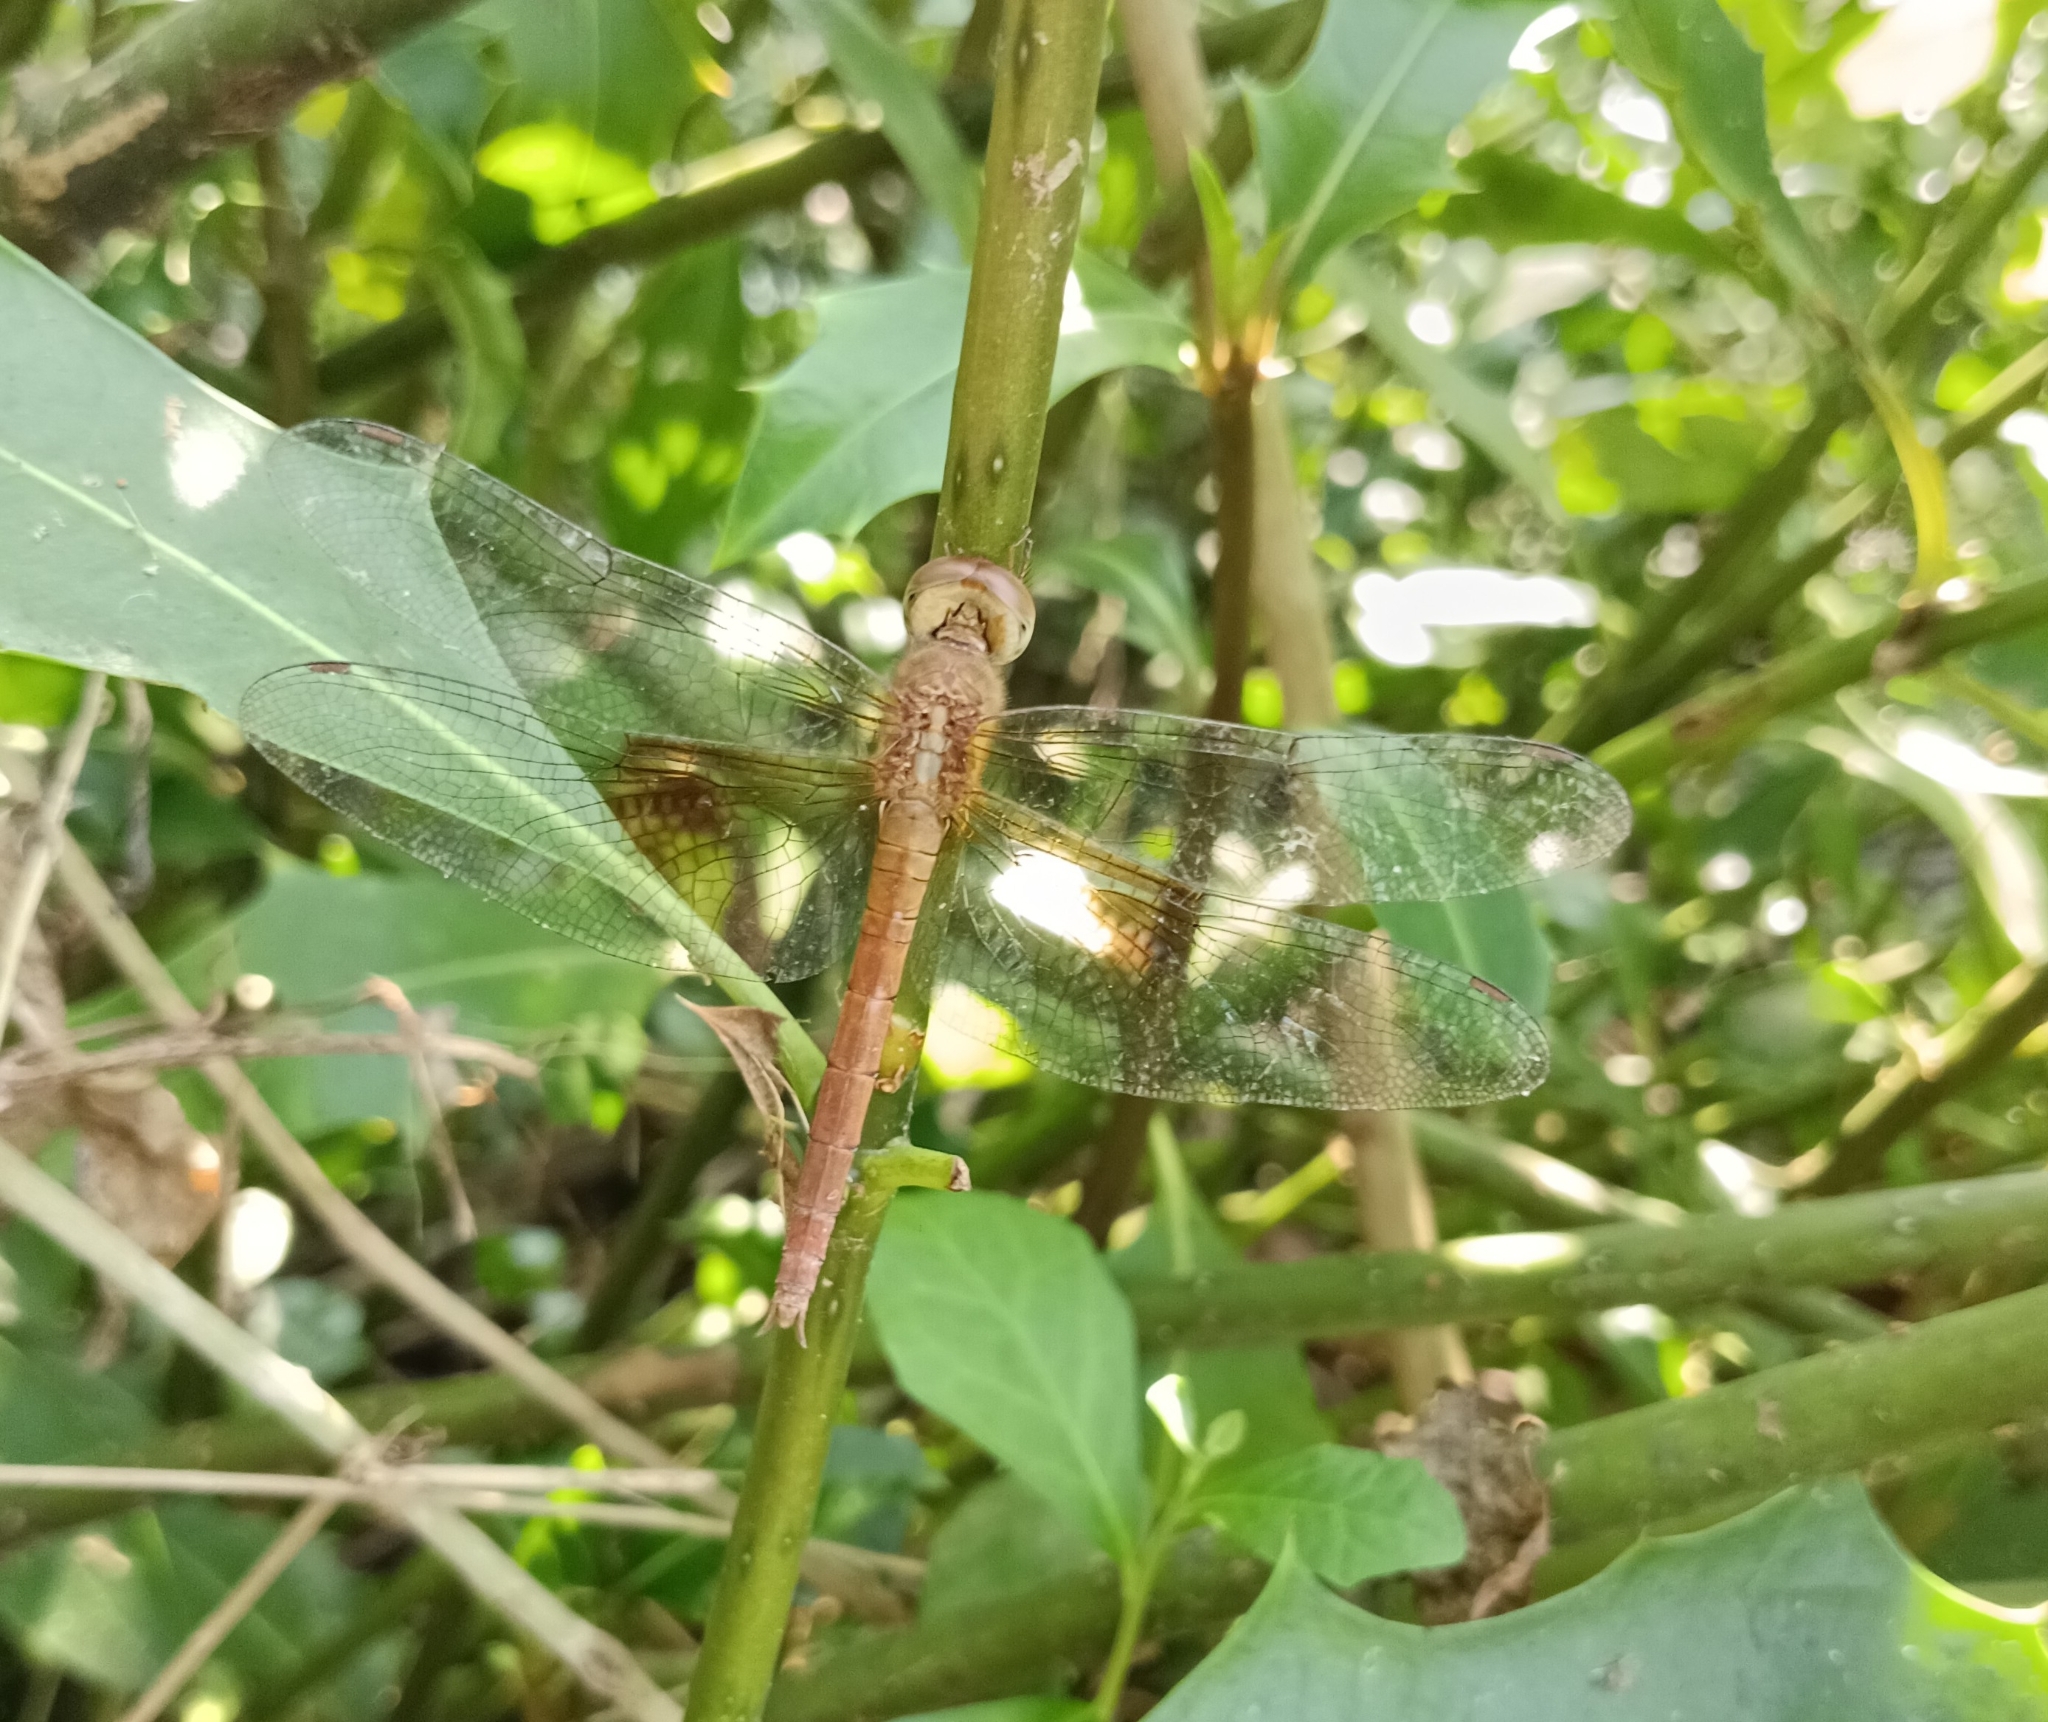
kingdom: Animalia
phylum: Arthropoda
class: Insecta
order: Odonata
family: Libellulidae
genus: Tholymis
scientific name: Tholymis tillarga
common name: Coral-tailed cloud wing
